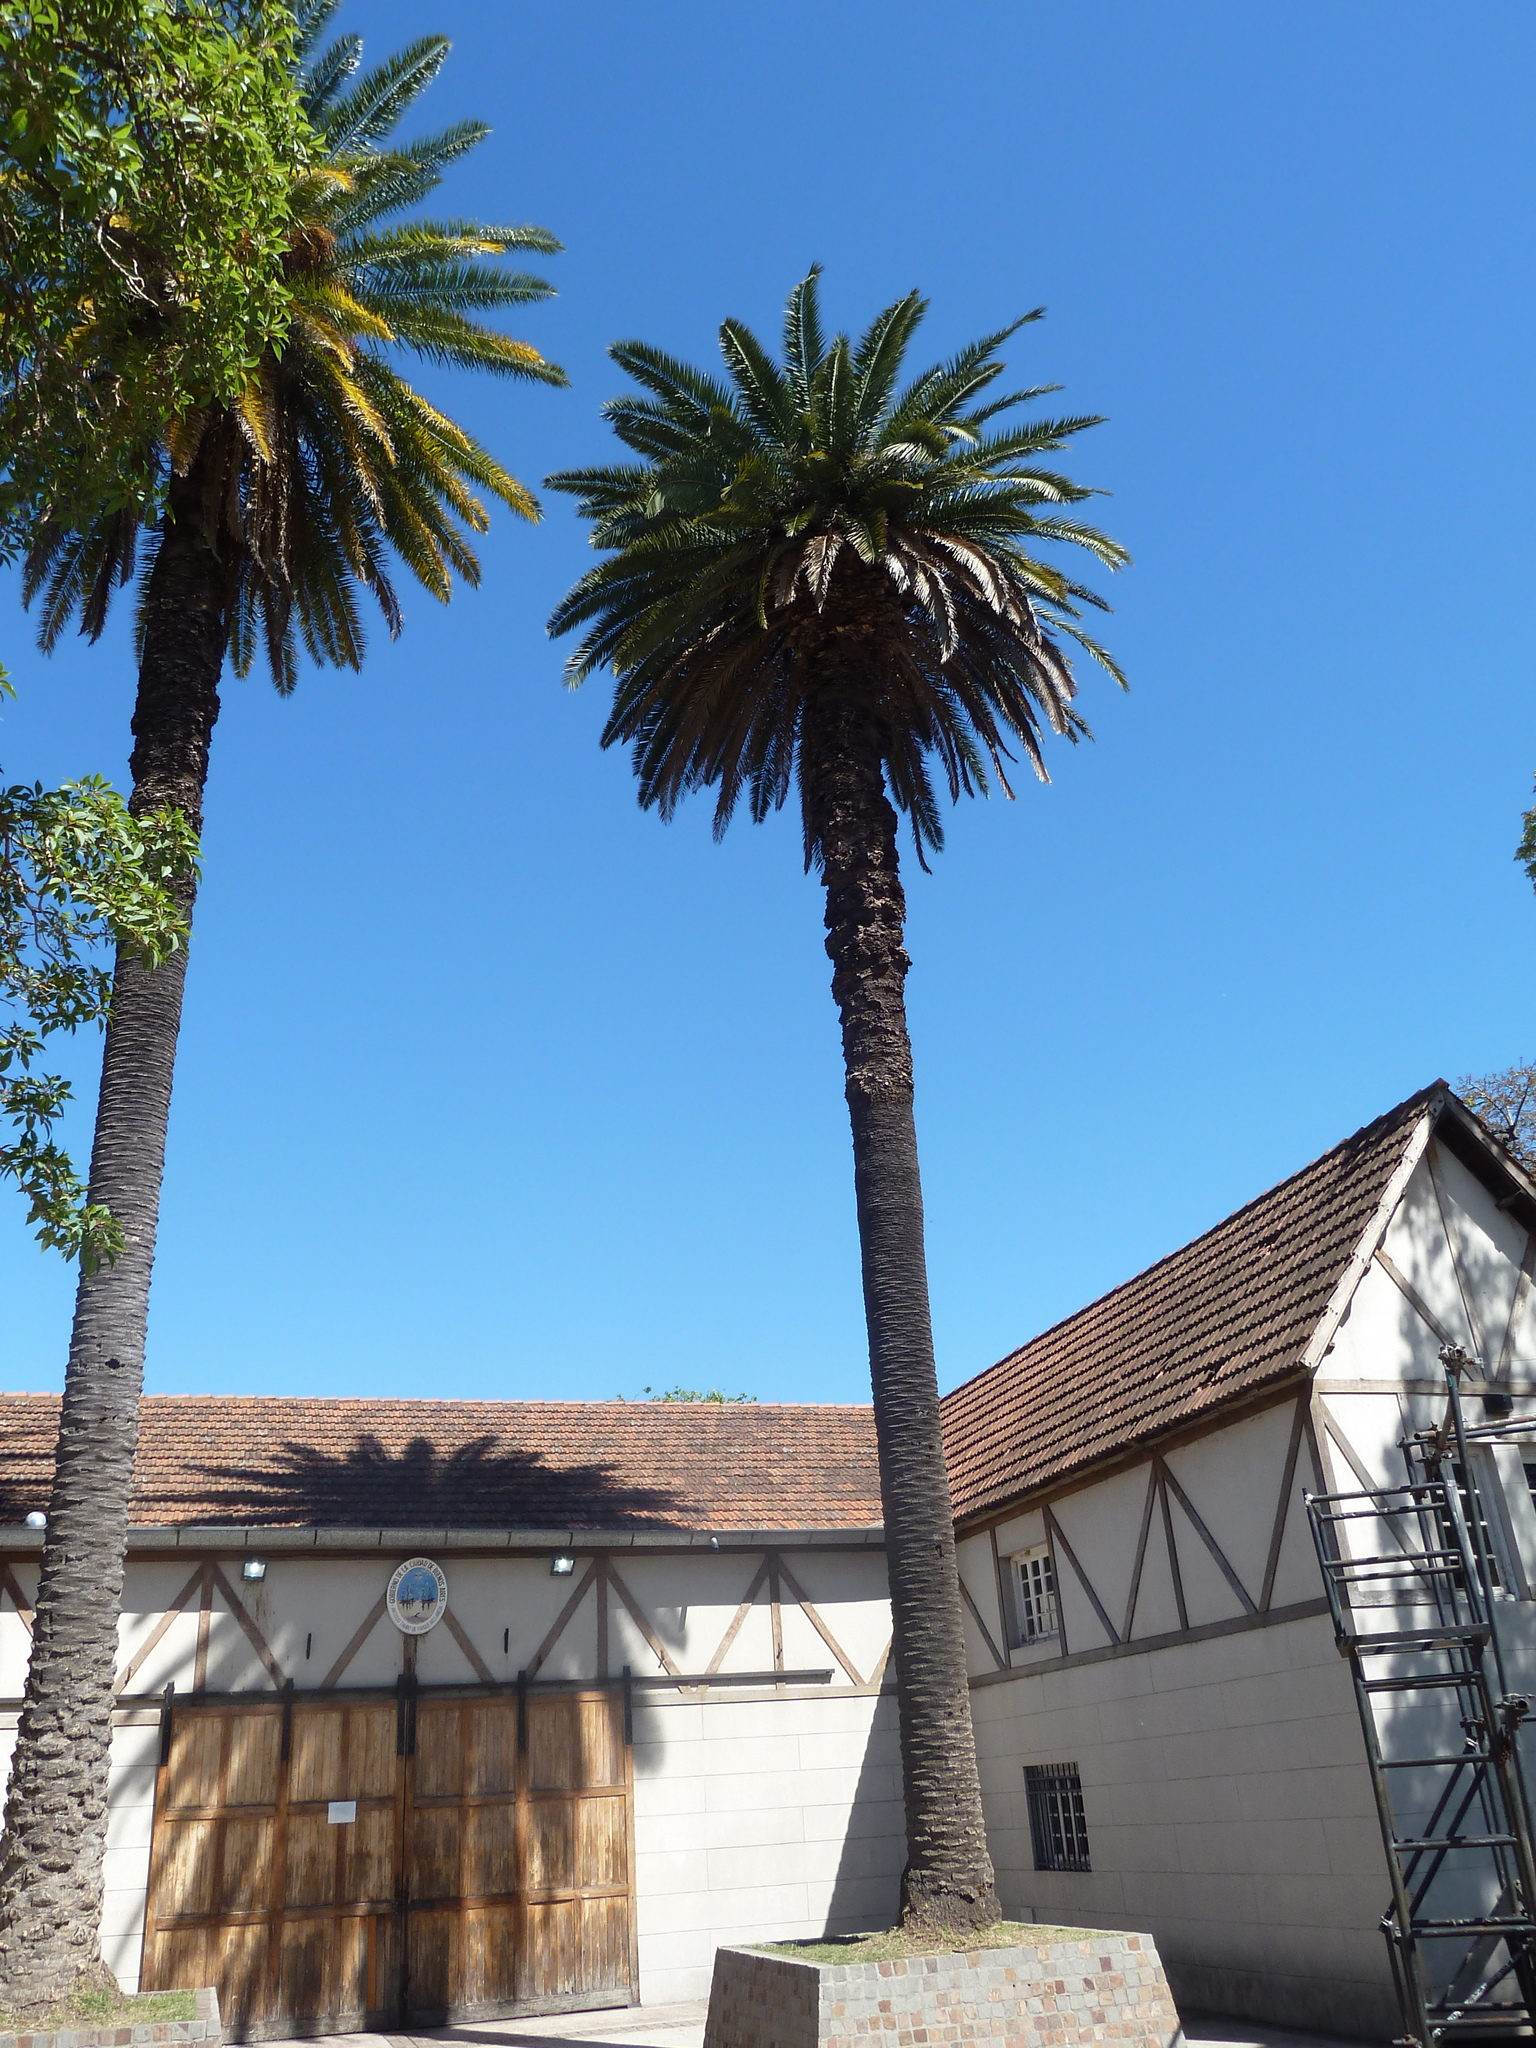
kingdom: Plantae
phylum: Tracheophyta
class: Liliopsida
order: Arecales
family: Arecaceae
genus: Phoenix
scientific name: Phoenix canariensis
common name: Canary island date palm
